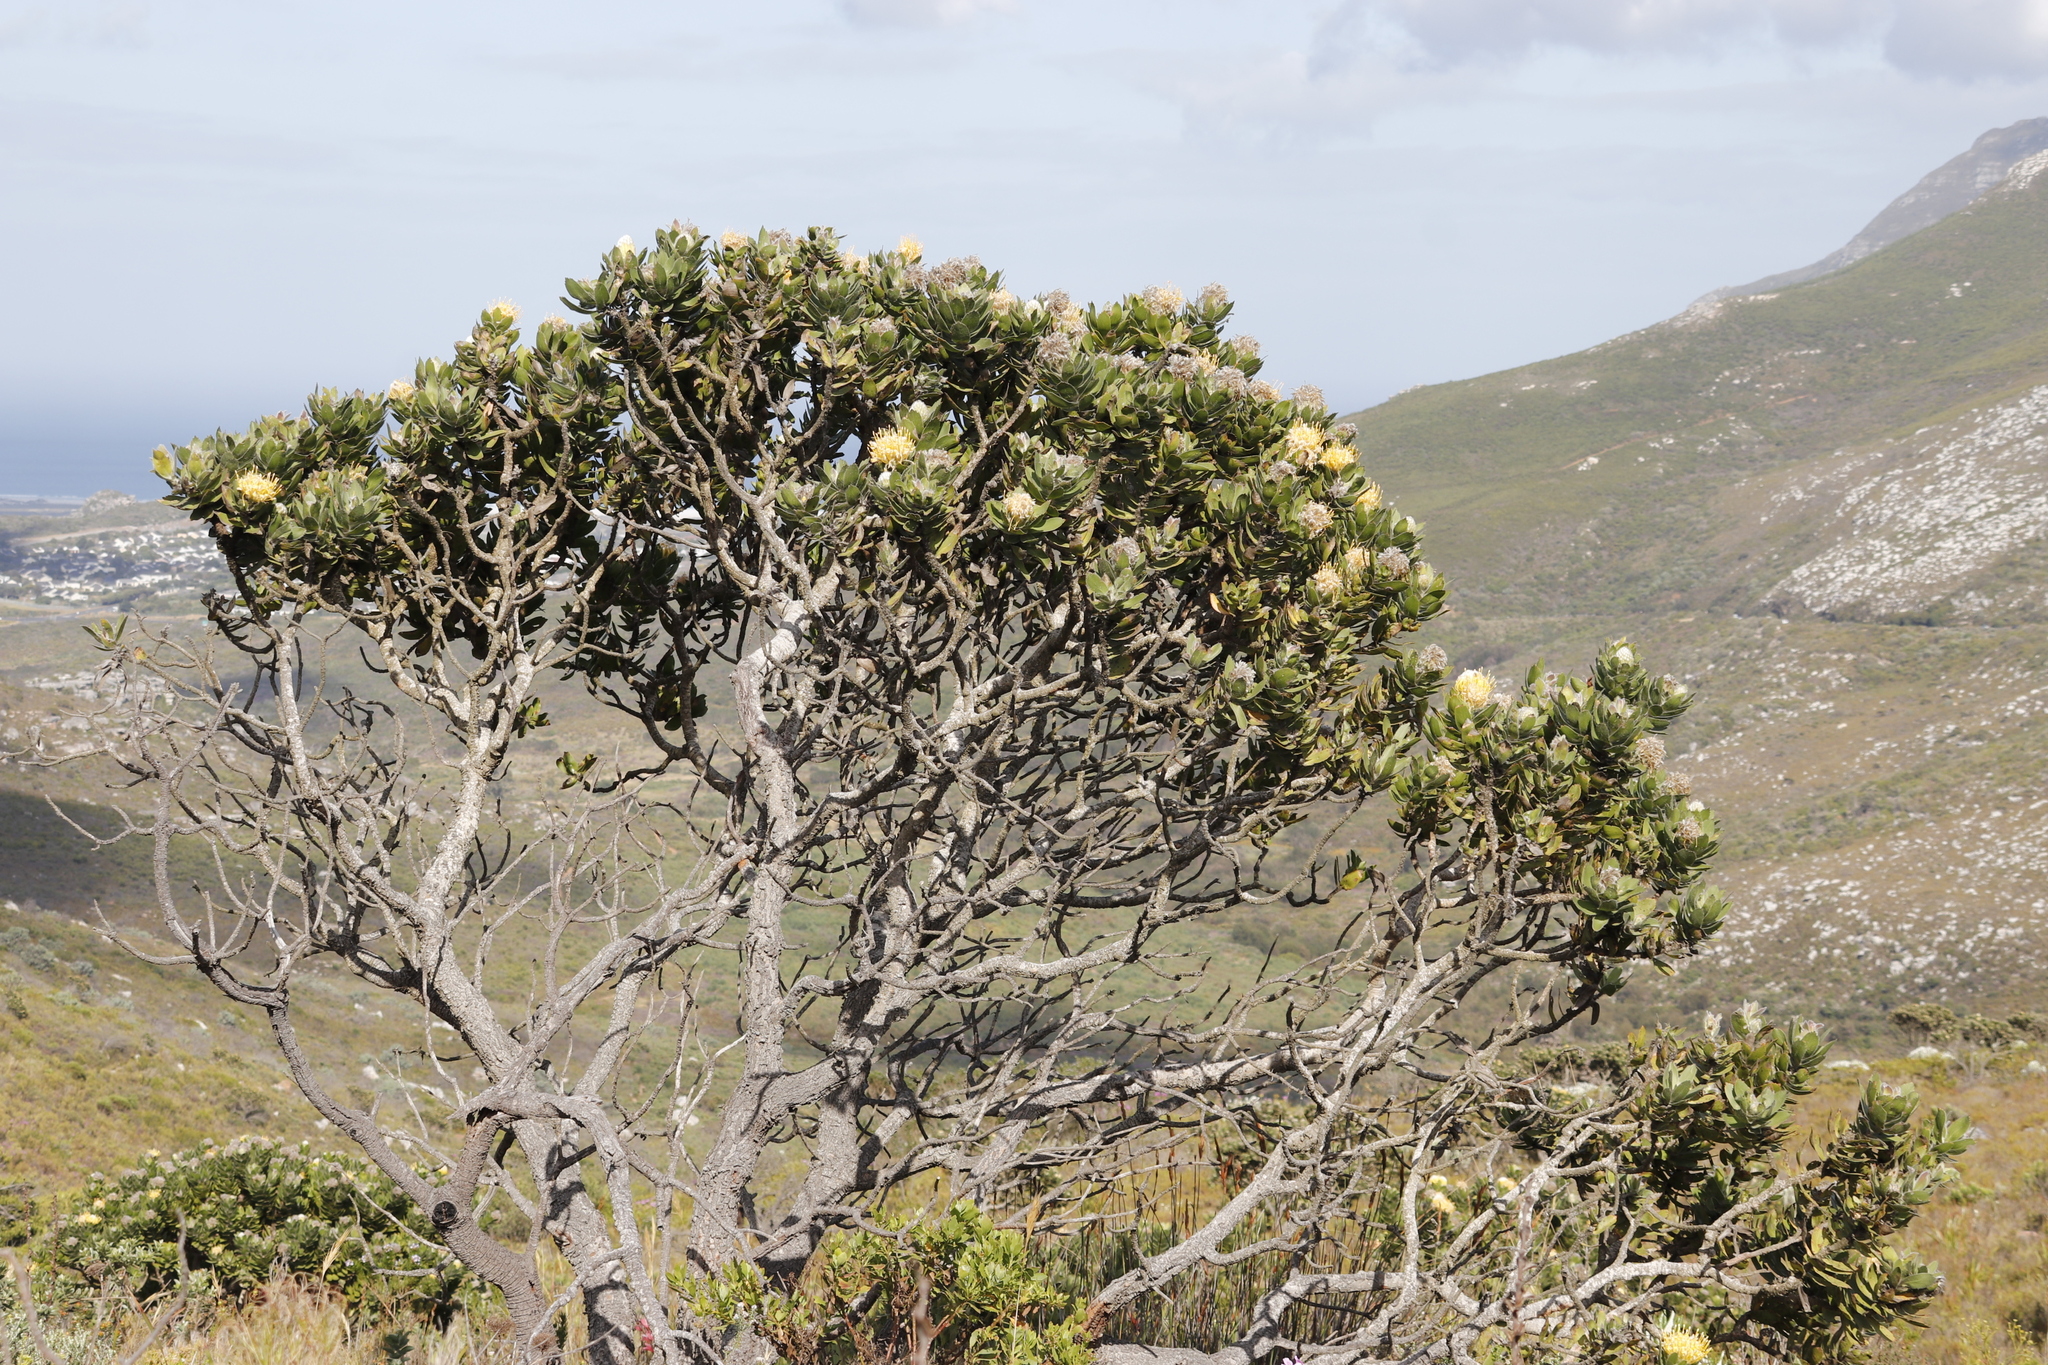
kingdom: Plantae
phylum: Tracheophyta
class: Magnoliopsida
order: Proteales
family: Proteaceae
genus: Leucospermum
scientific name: Leucospermum conocarpodendron
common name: Tree pincushion
